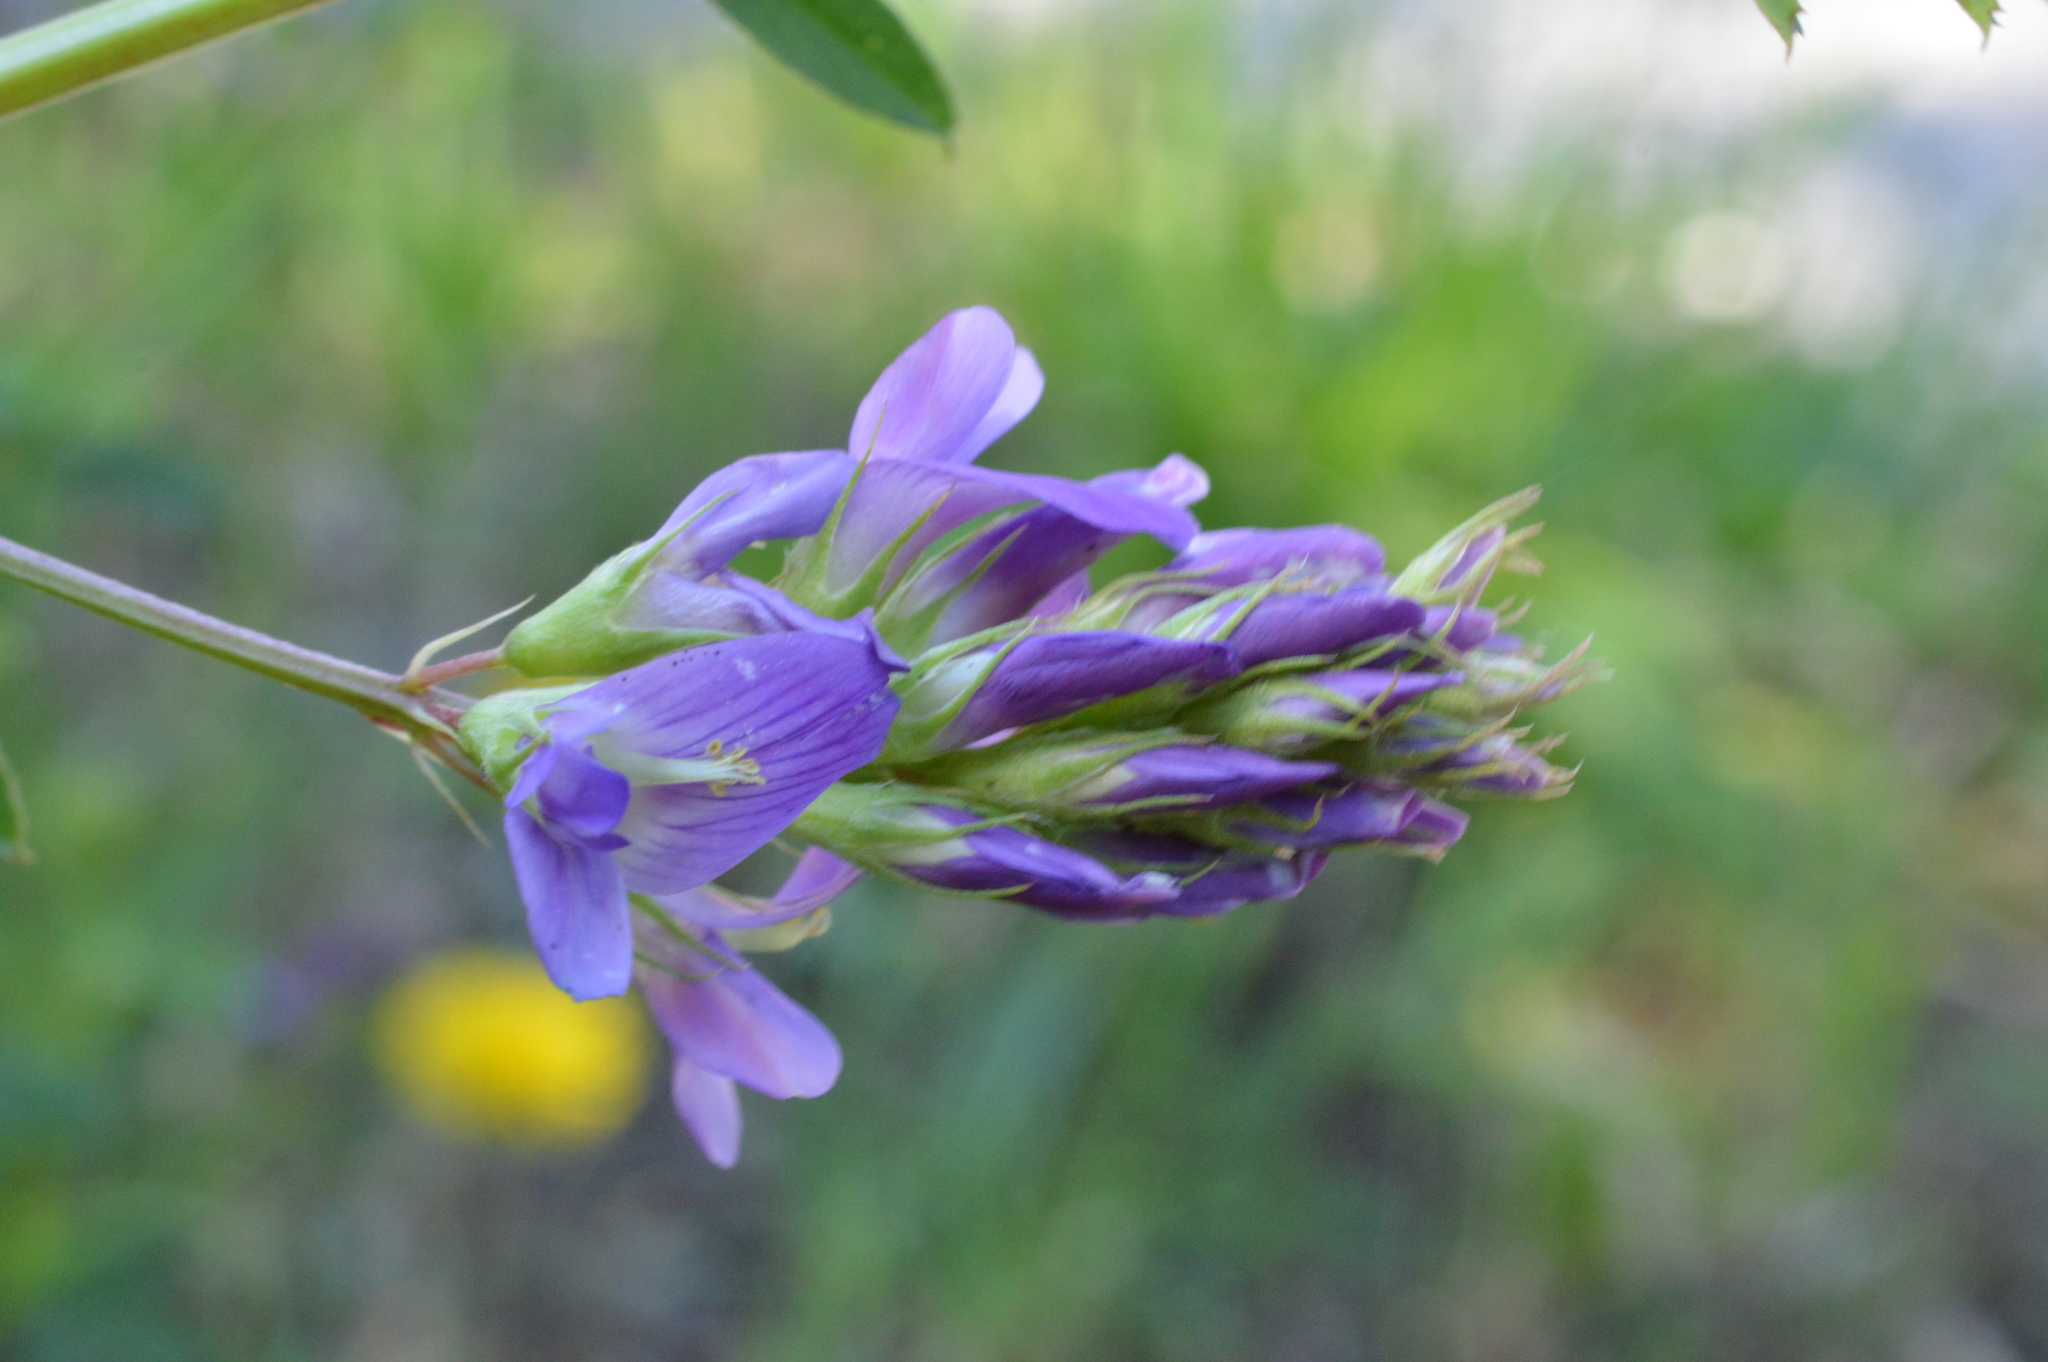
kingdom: Plantae
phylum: Tracheophyta
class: Magnoliopsida
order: Fabales
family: Fabaceae
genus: Medicago
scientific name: Medicago sativa
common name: Alfalfa
